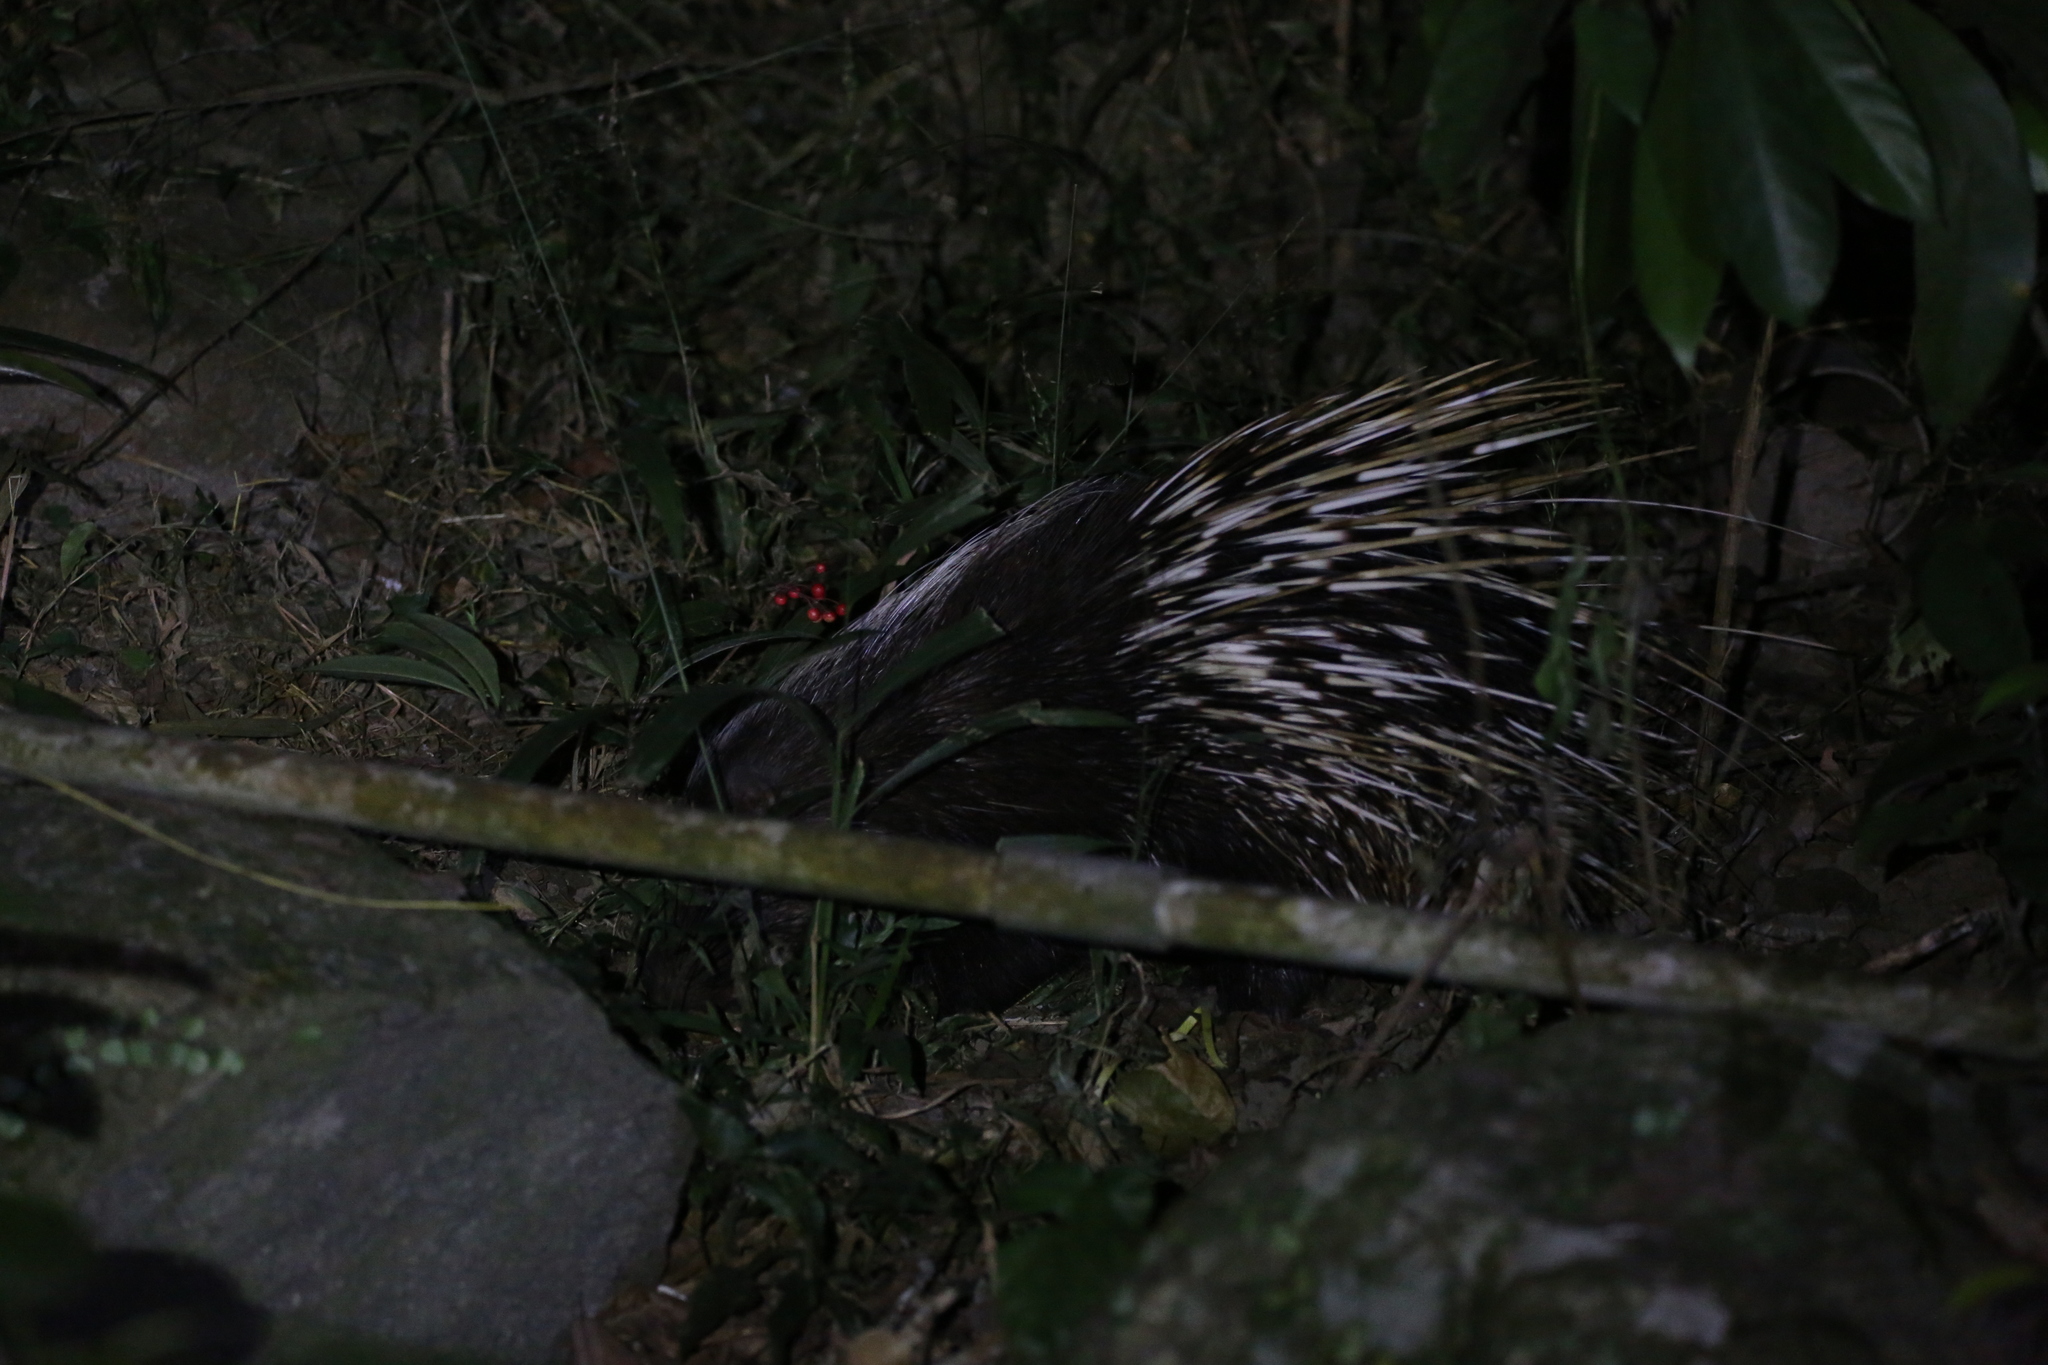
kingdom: Animalia
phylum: Chordata
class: Mammalia
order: Rodentia
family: Hystricidae
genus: Hystrix
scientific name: Hystrix brachyura
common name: Malayan porcupine
